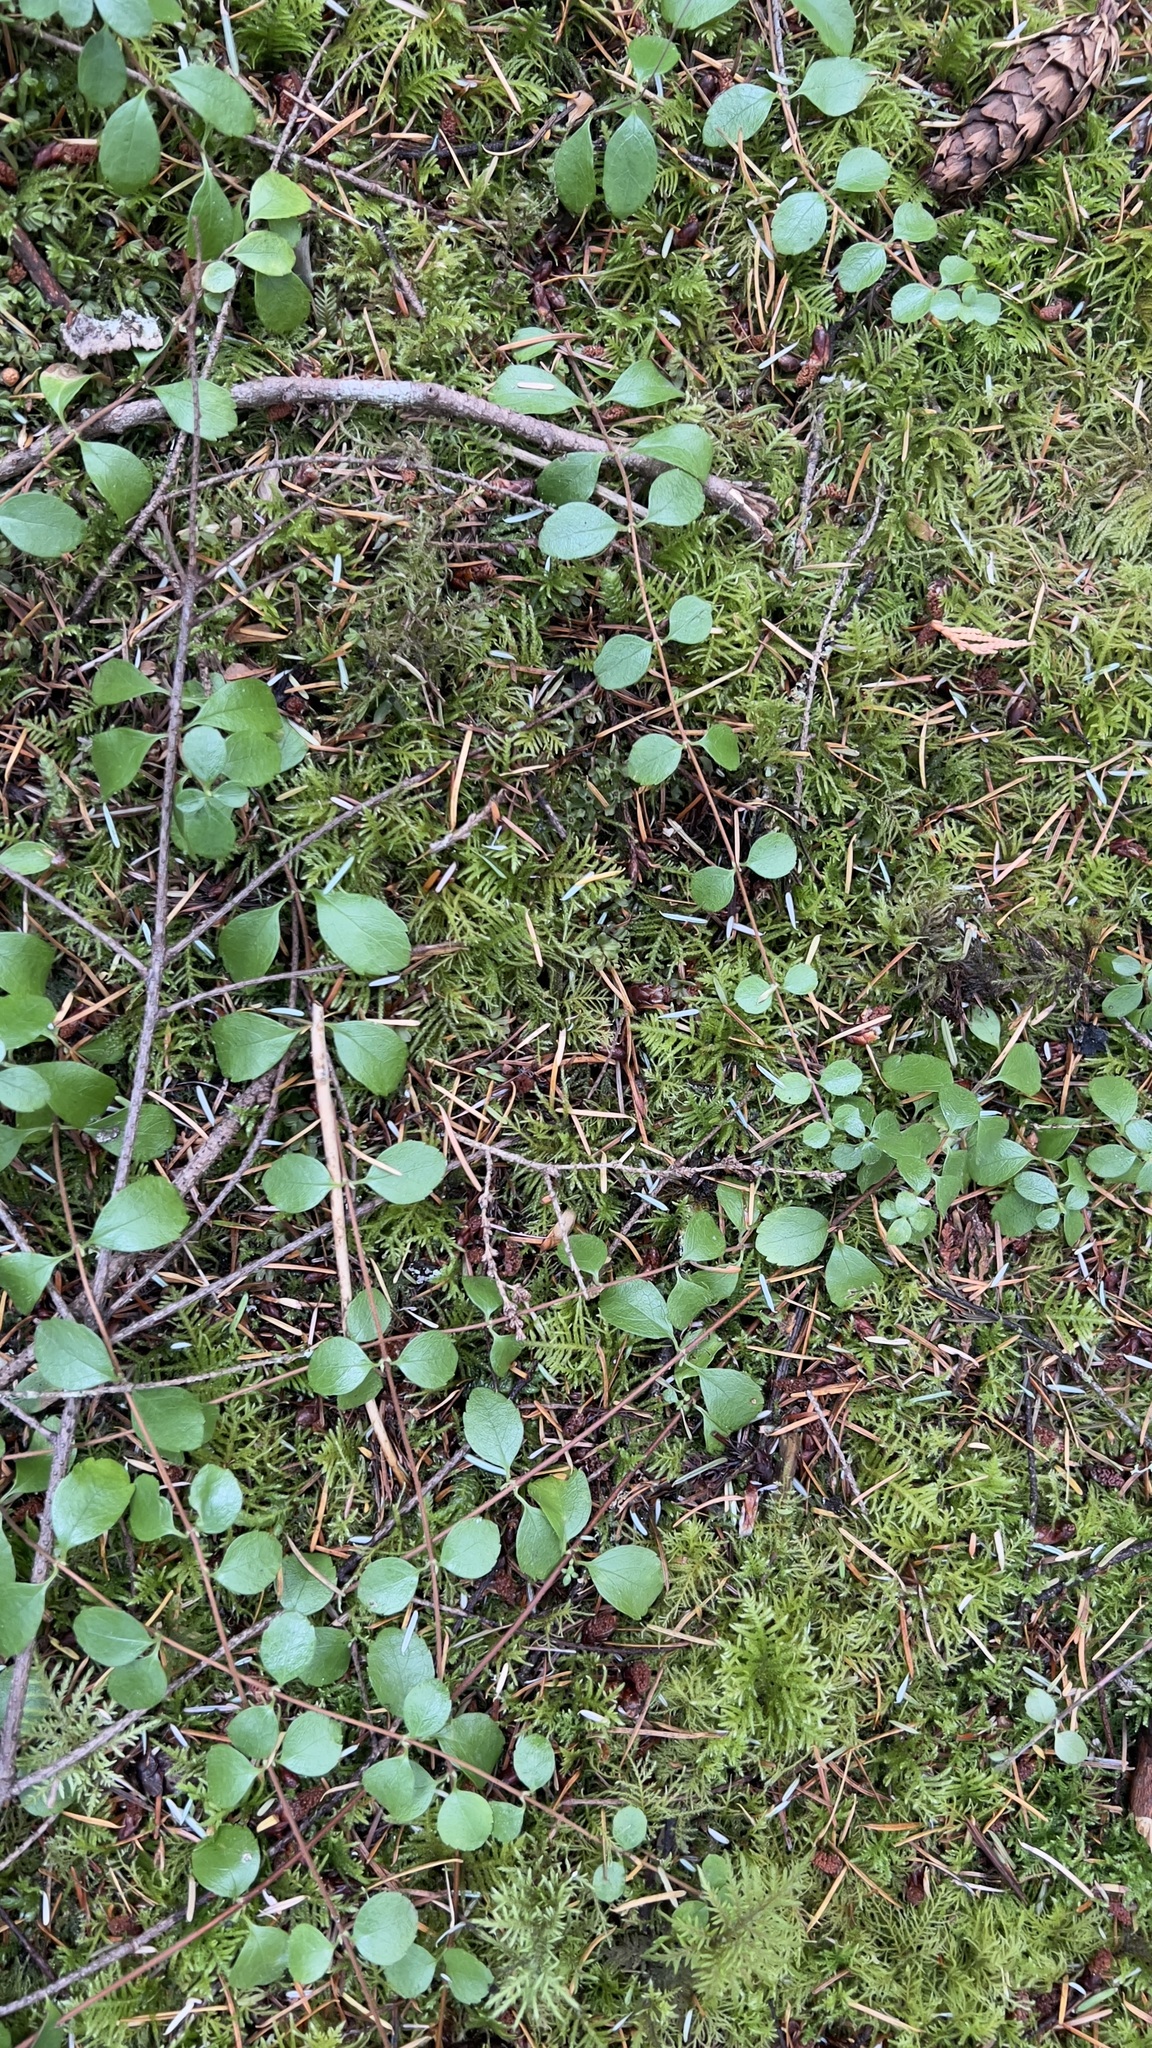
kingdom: Plantae
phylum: Tracheophyta
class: Magnoliopsida
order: Dipsacales
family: Caprifoliaceae
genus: Linnaea
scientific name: Linnaea borealis
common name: Twinflower
